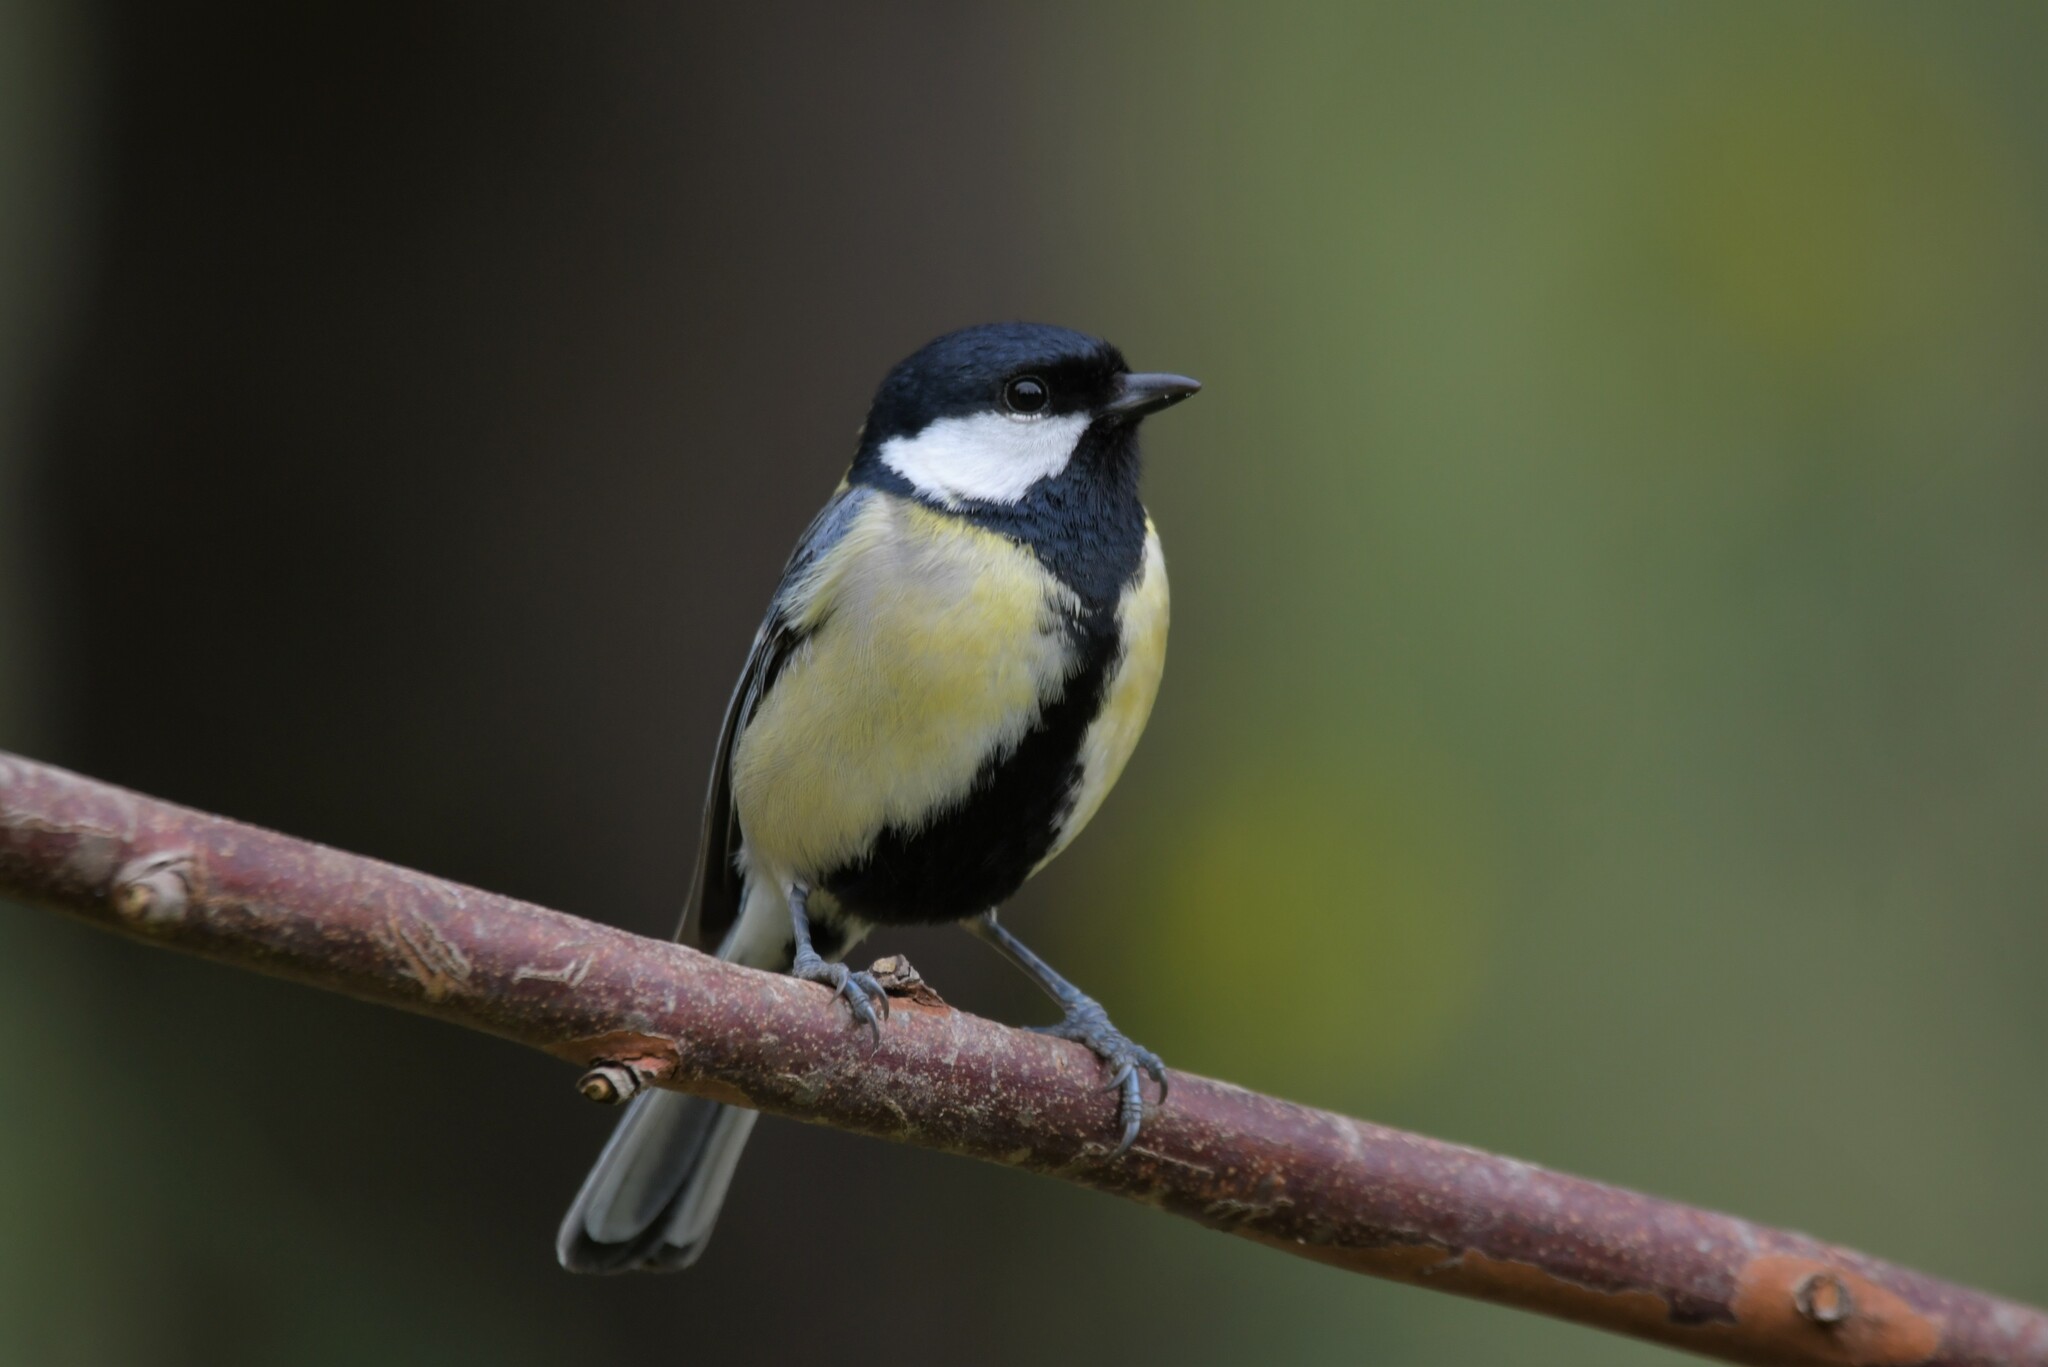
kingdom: Animalia
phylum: Chordata
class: Aves
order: Passeriformes
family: Paridae
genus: Parus
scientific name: Parus major
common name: Great tit
